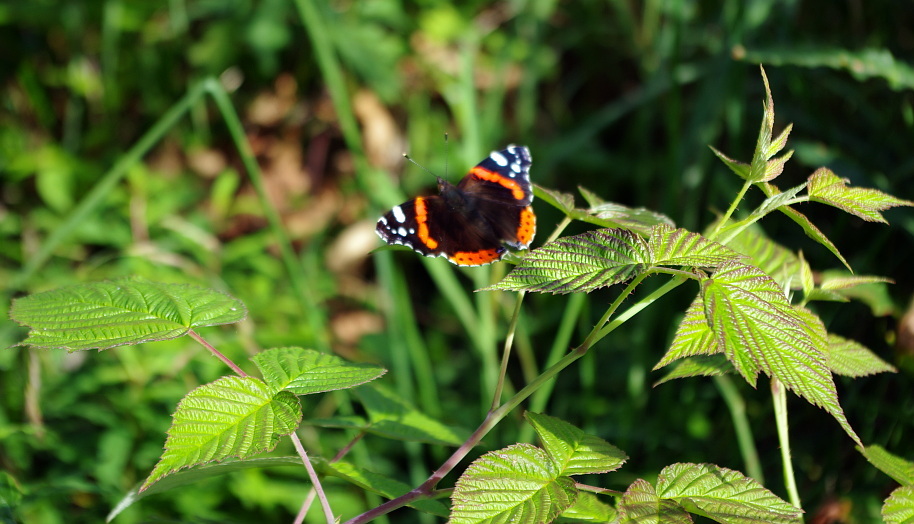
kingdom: Plantae
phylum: Tracheophyta
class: Magnoliopsida
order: Rosales
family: Rosaceae
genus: Rubus
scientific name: Rubus idaeus
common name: Raspberry
